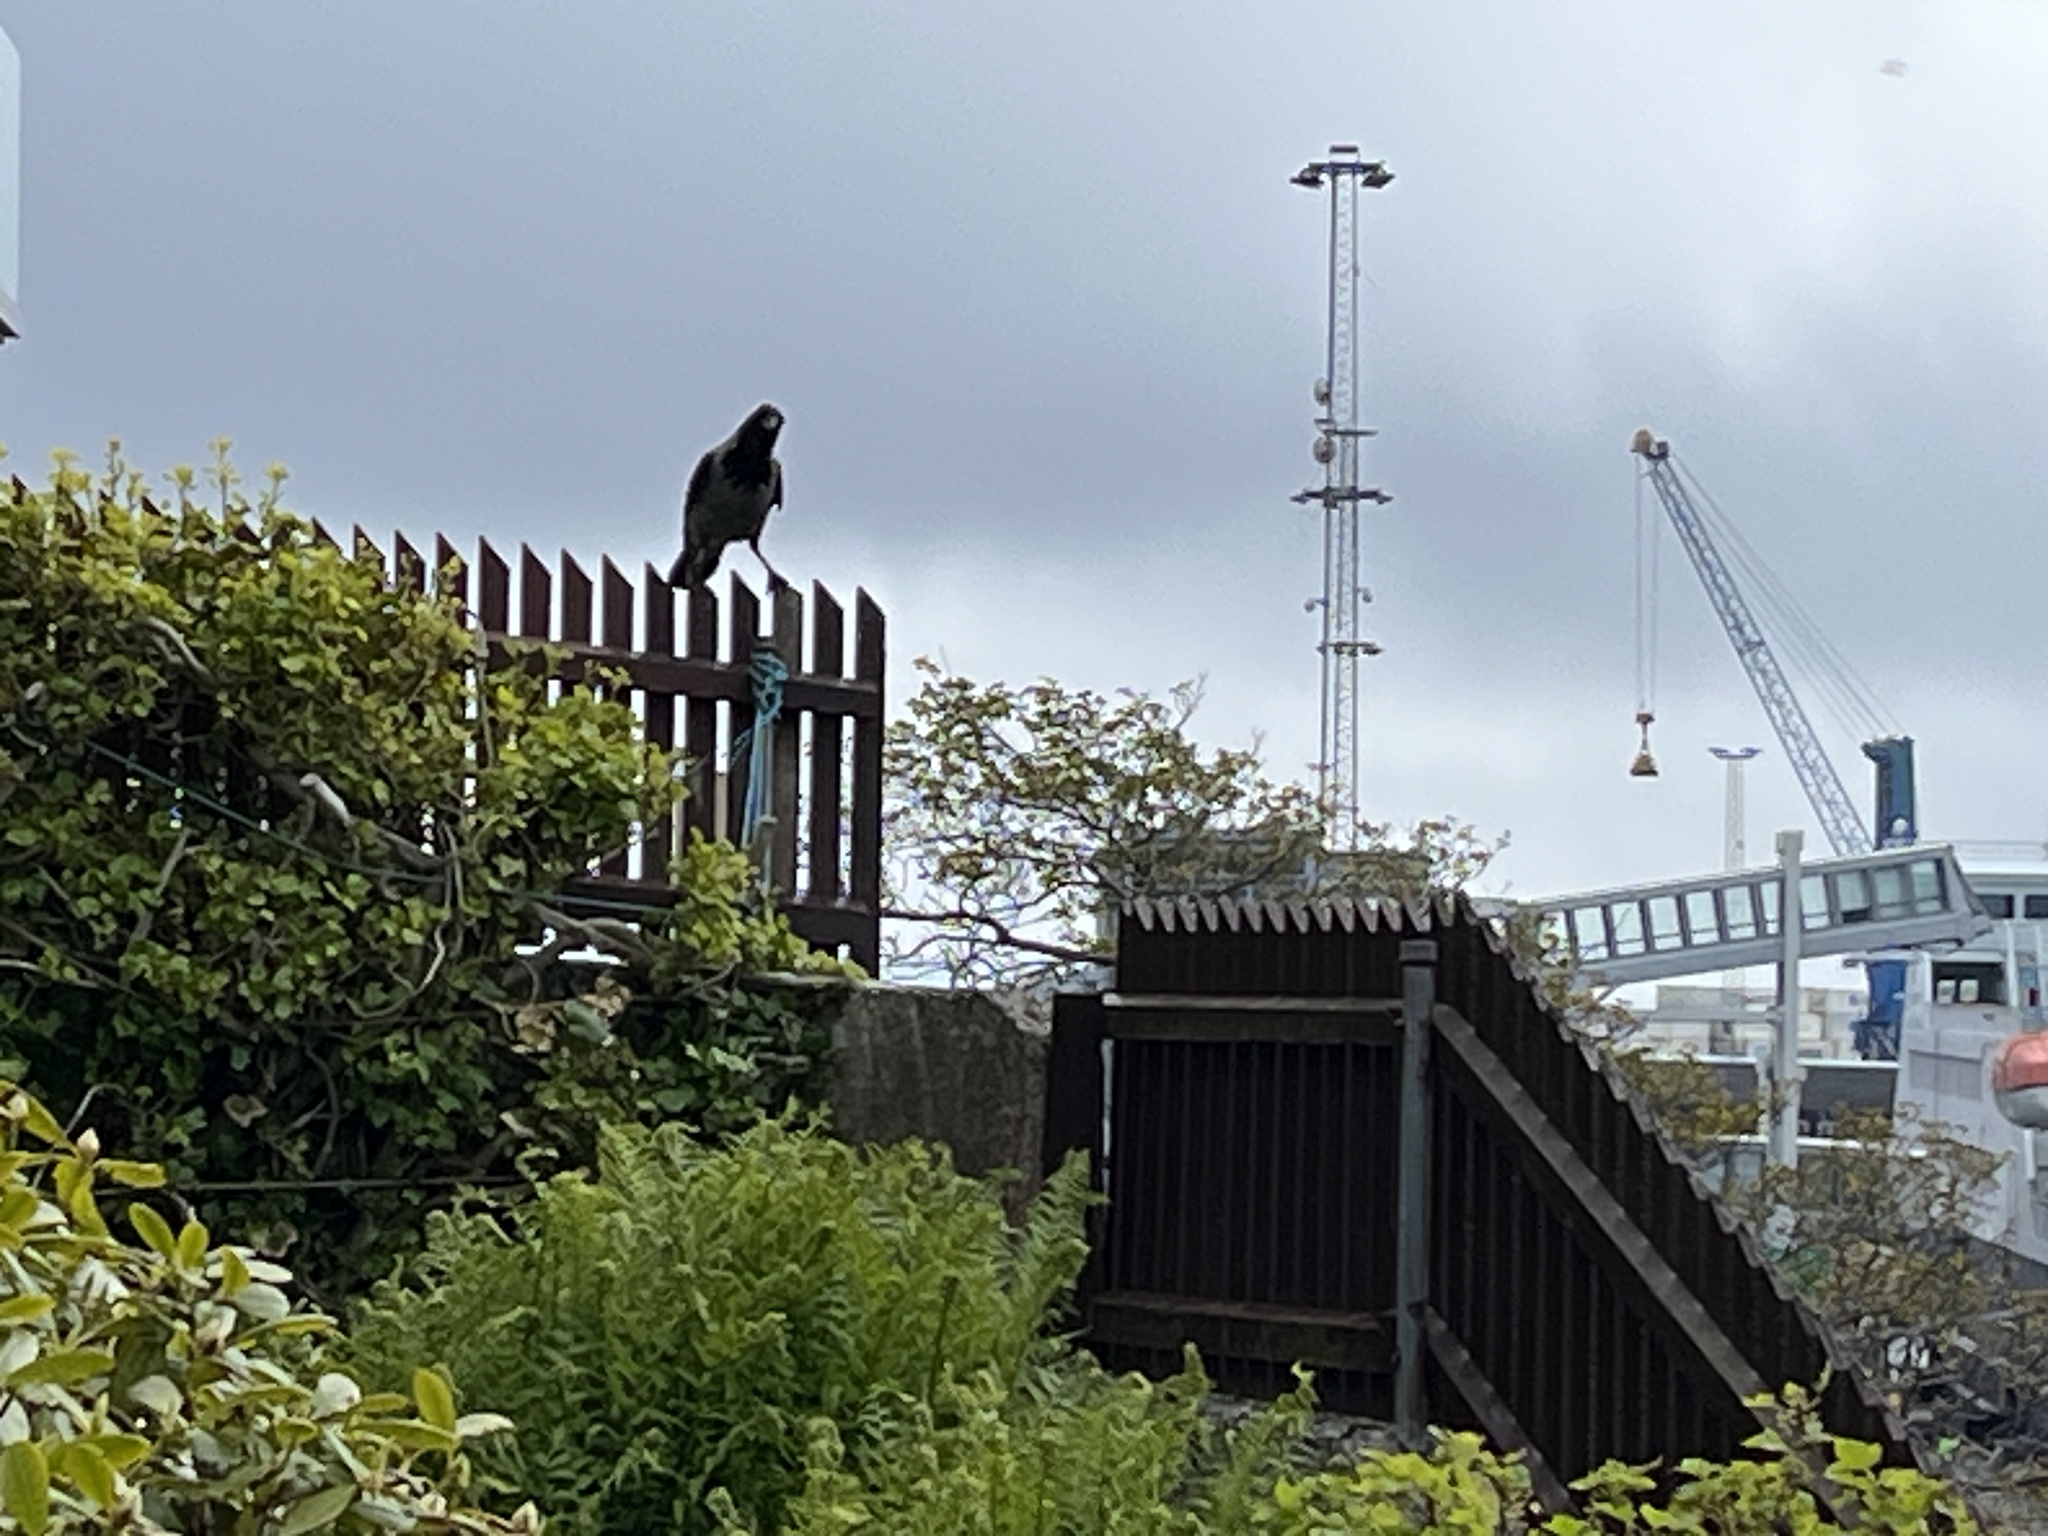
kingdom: Animalia
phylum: Chordata
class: Aves
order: Passeriformes
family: Corvidae
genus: Corvus
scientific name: Corvus cornix
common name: Hooded crow
